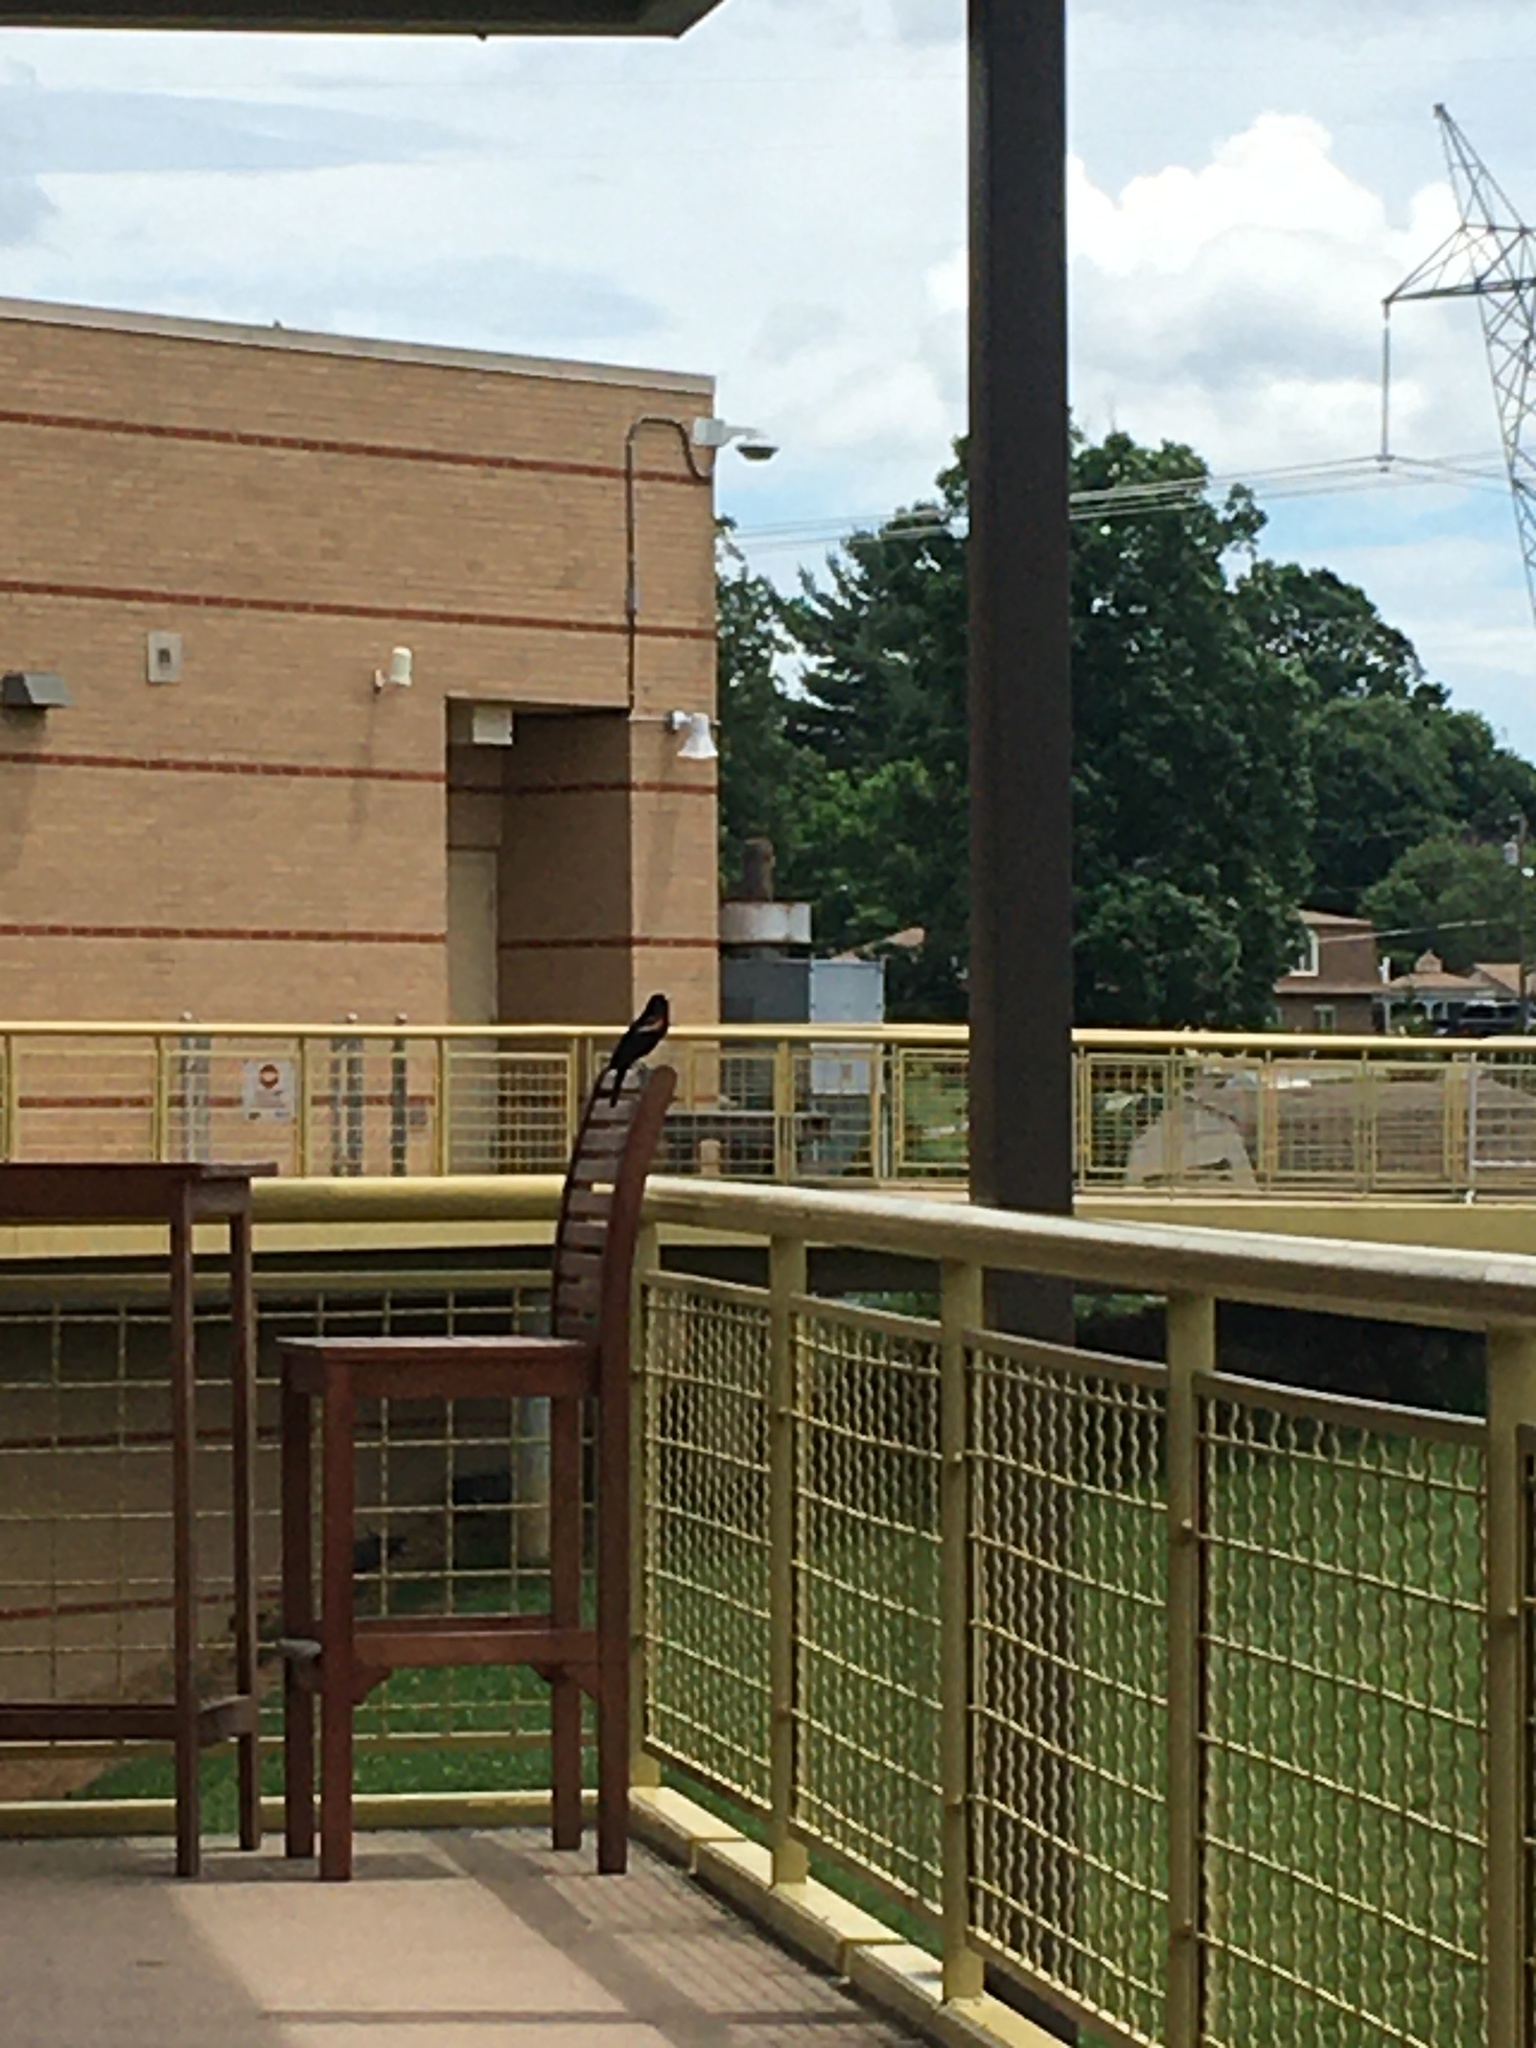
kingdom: Animalia
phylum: Chordata
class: Aves
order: Passeriformes
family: Icteridae
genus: Agelaius
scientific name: Agelaius phoeniceus
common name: Red-winged blackbird
